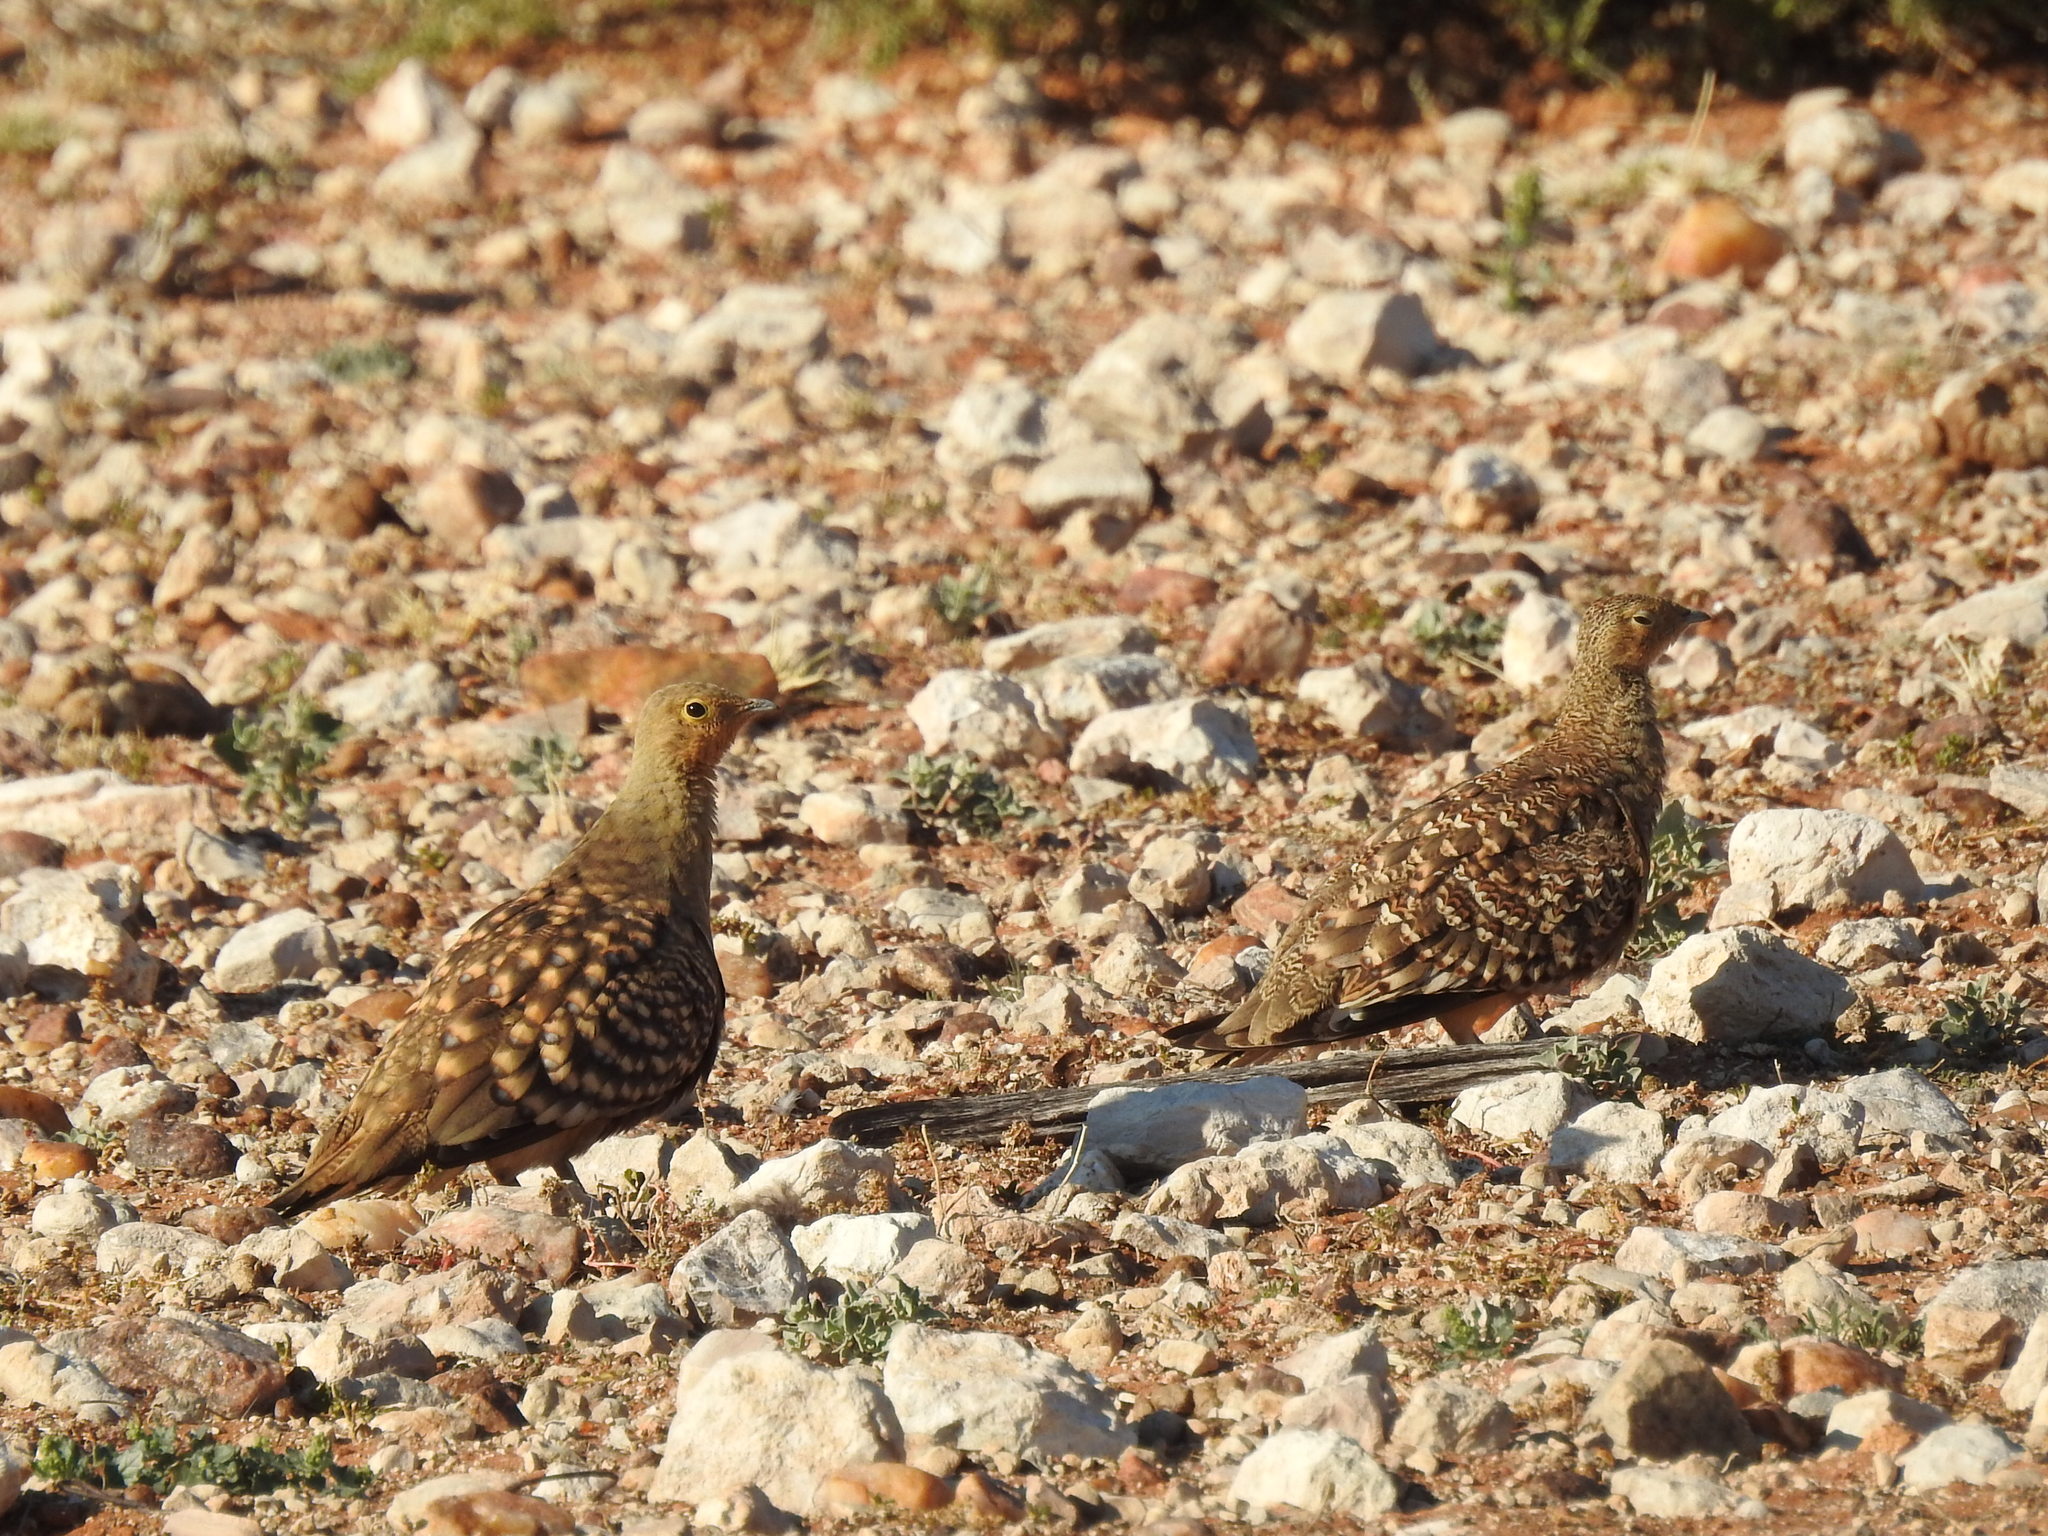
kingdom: Animalia
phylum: Chordata
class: Aves
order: Pteroclidiformes
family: Pteroclididae
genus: Pterocles
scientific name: Pterocles namaqua
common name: Namaqua sandgrouse
